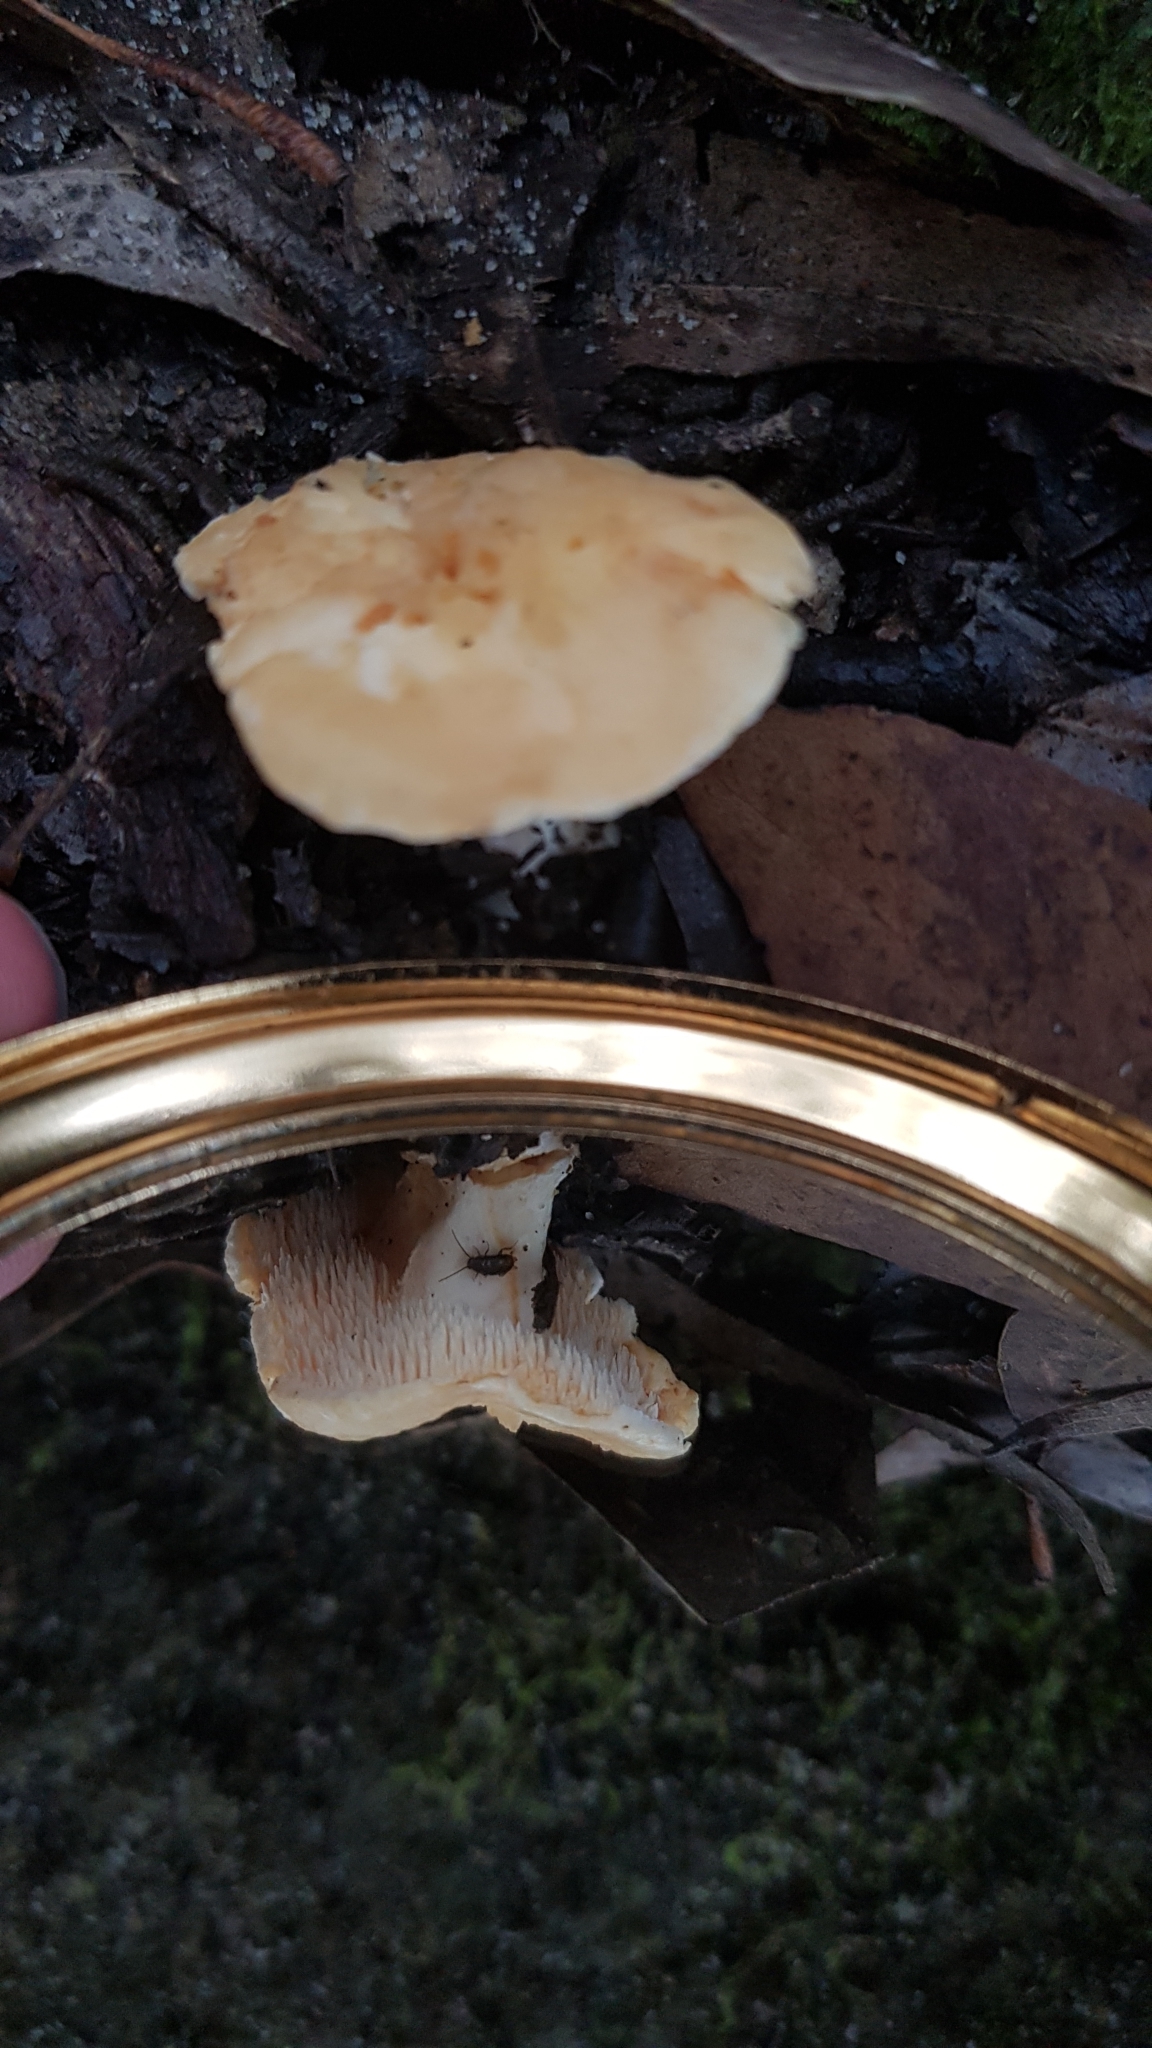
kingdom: Fungi
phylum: Basidiomycota
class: Agaricomycetes
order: Cantharellales
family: Hydnaceae
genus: Hydnum
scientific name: Hydnum ambustum
